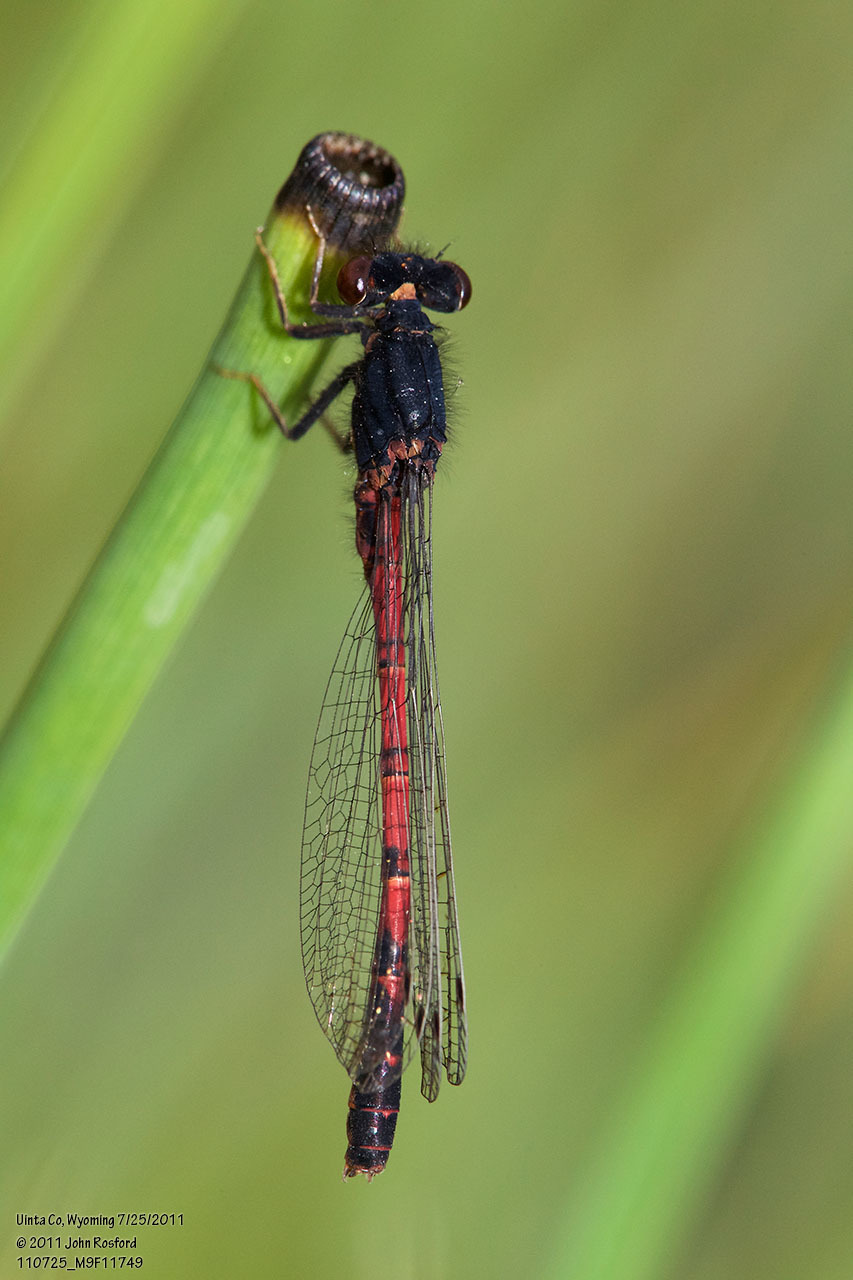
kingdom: Animalia
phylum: Arthropoda
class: Insecta
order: Odonata
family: Coenagrionidae
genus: Amphiagrion
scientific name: Amphiagrion abbreviatum
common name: Western red damsel
